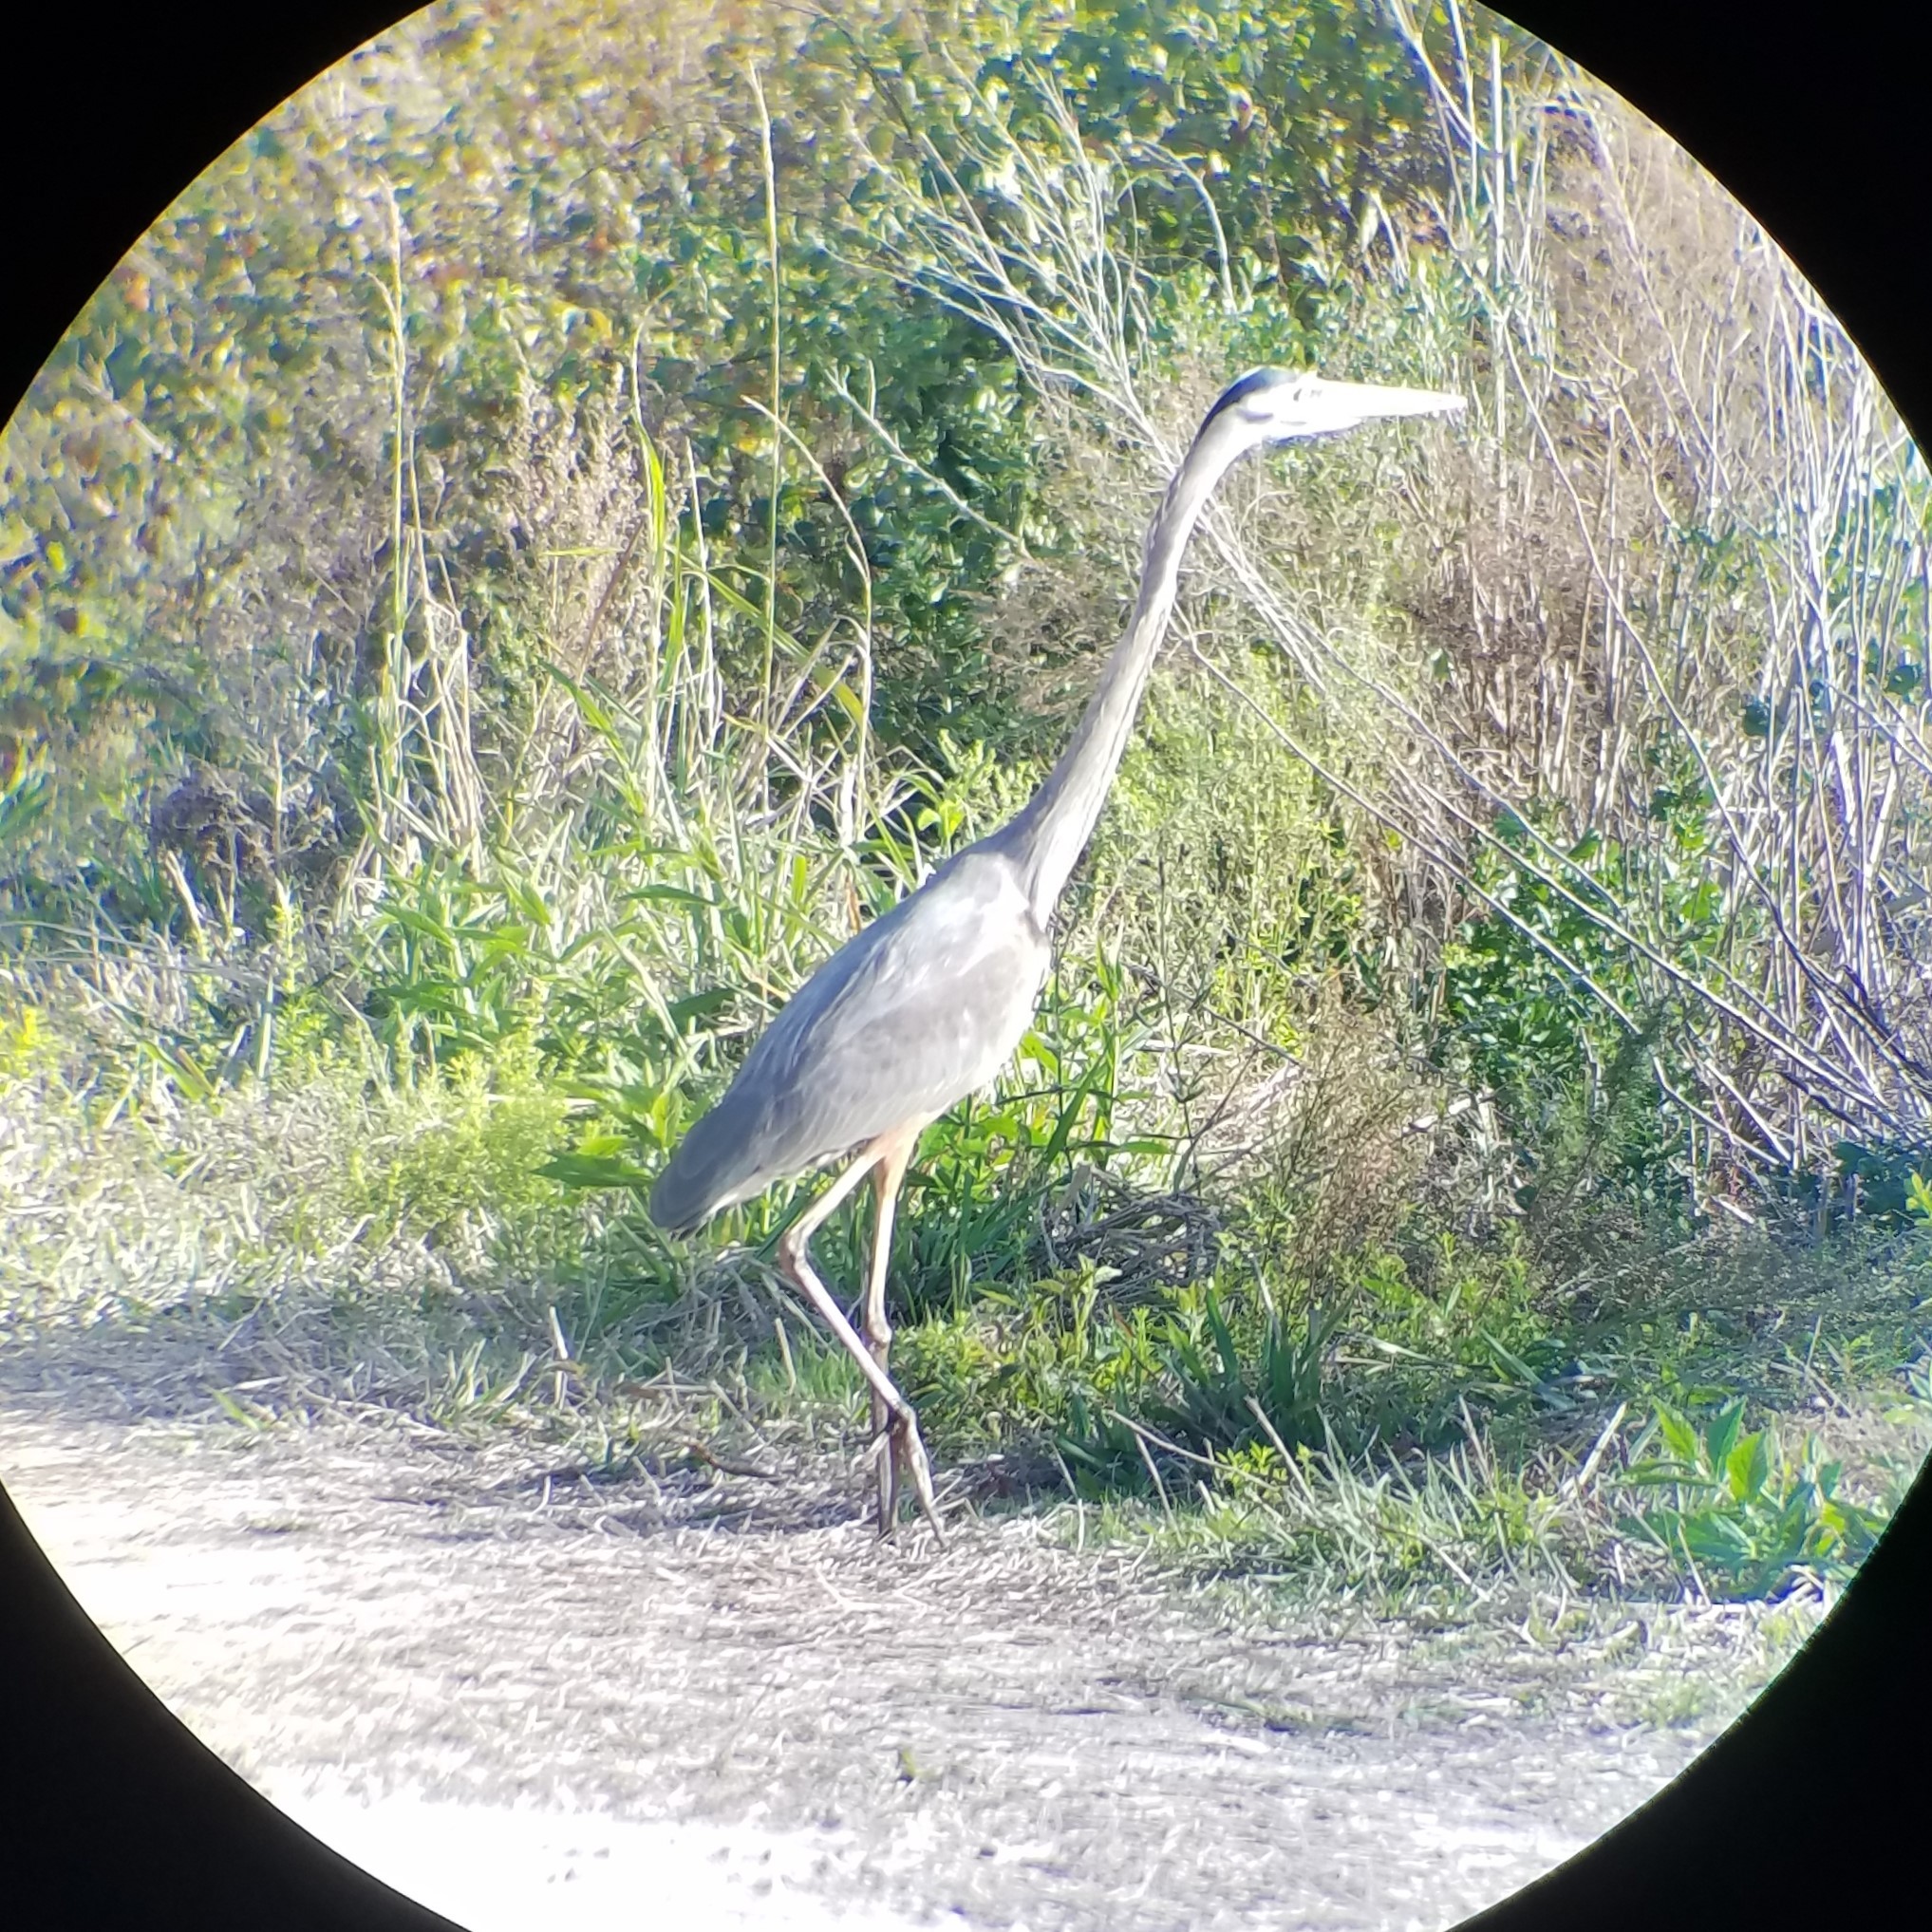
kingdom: Animalia
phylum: Chordata
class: Aves
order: Pelecaniformes
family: Ardeidae
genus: Ardea
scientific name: Ardea herodias
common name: Great blue heron
